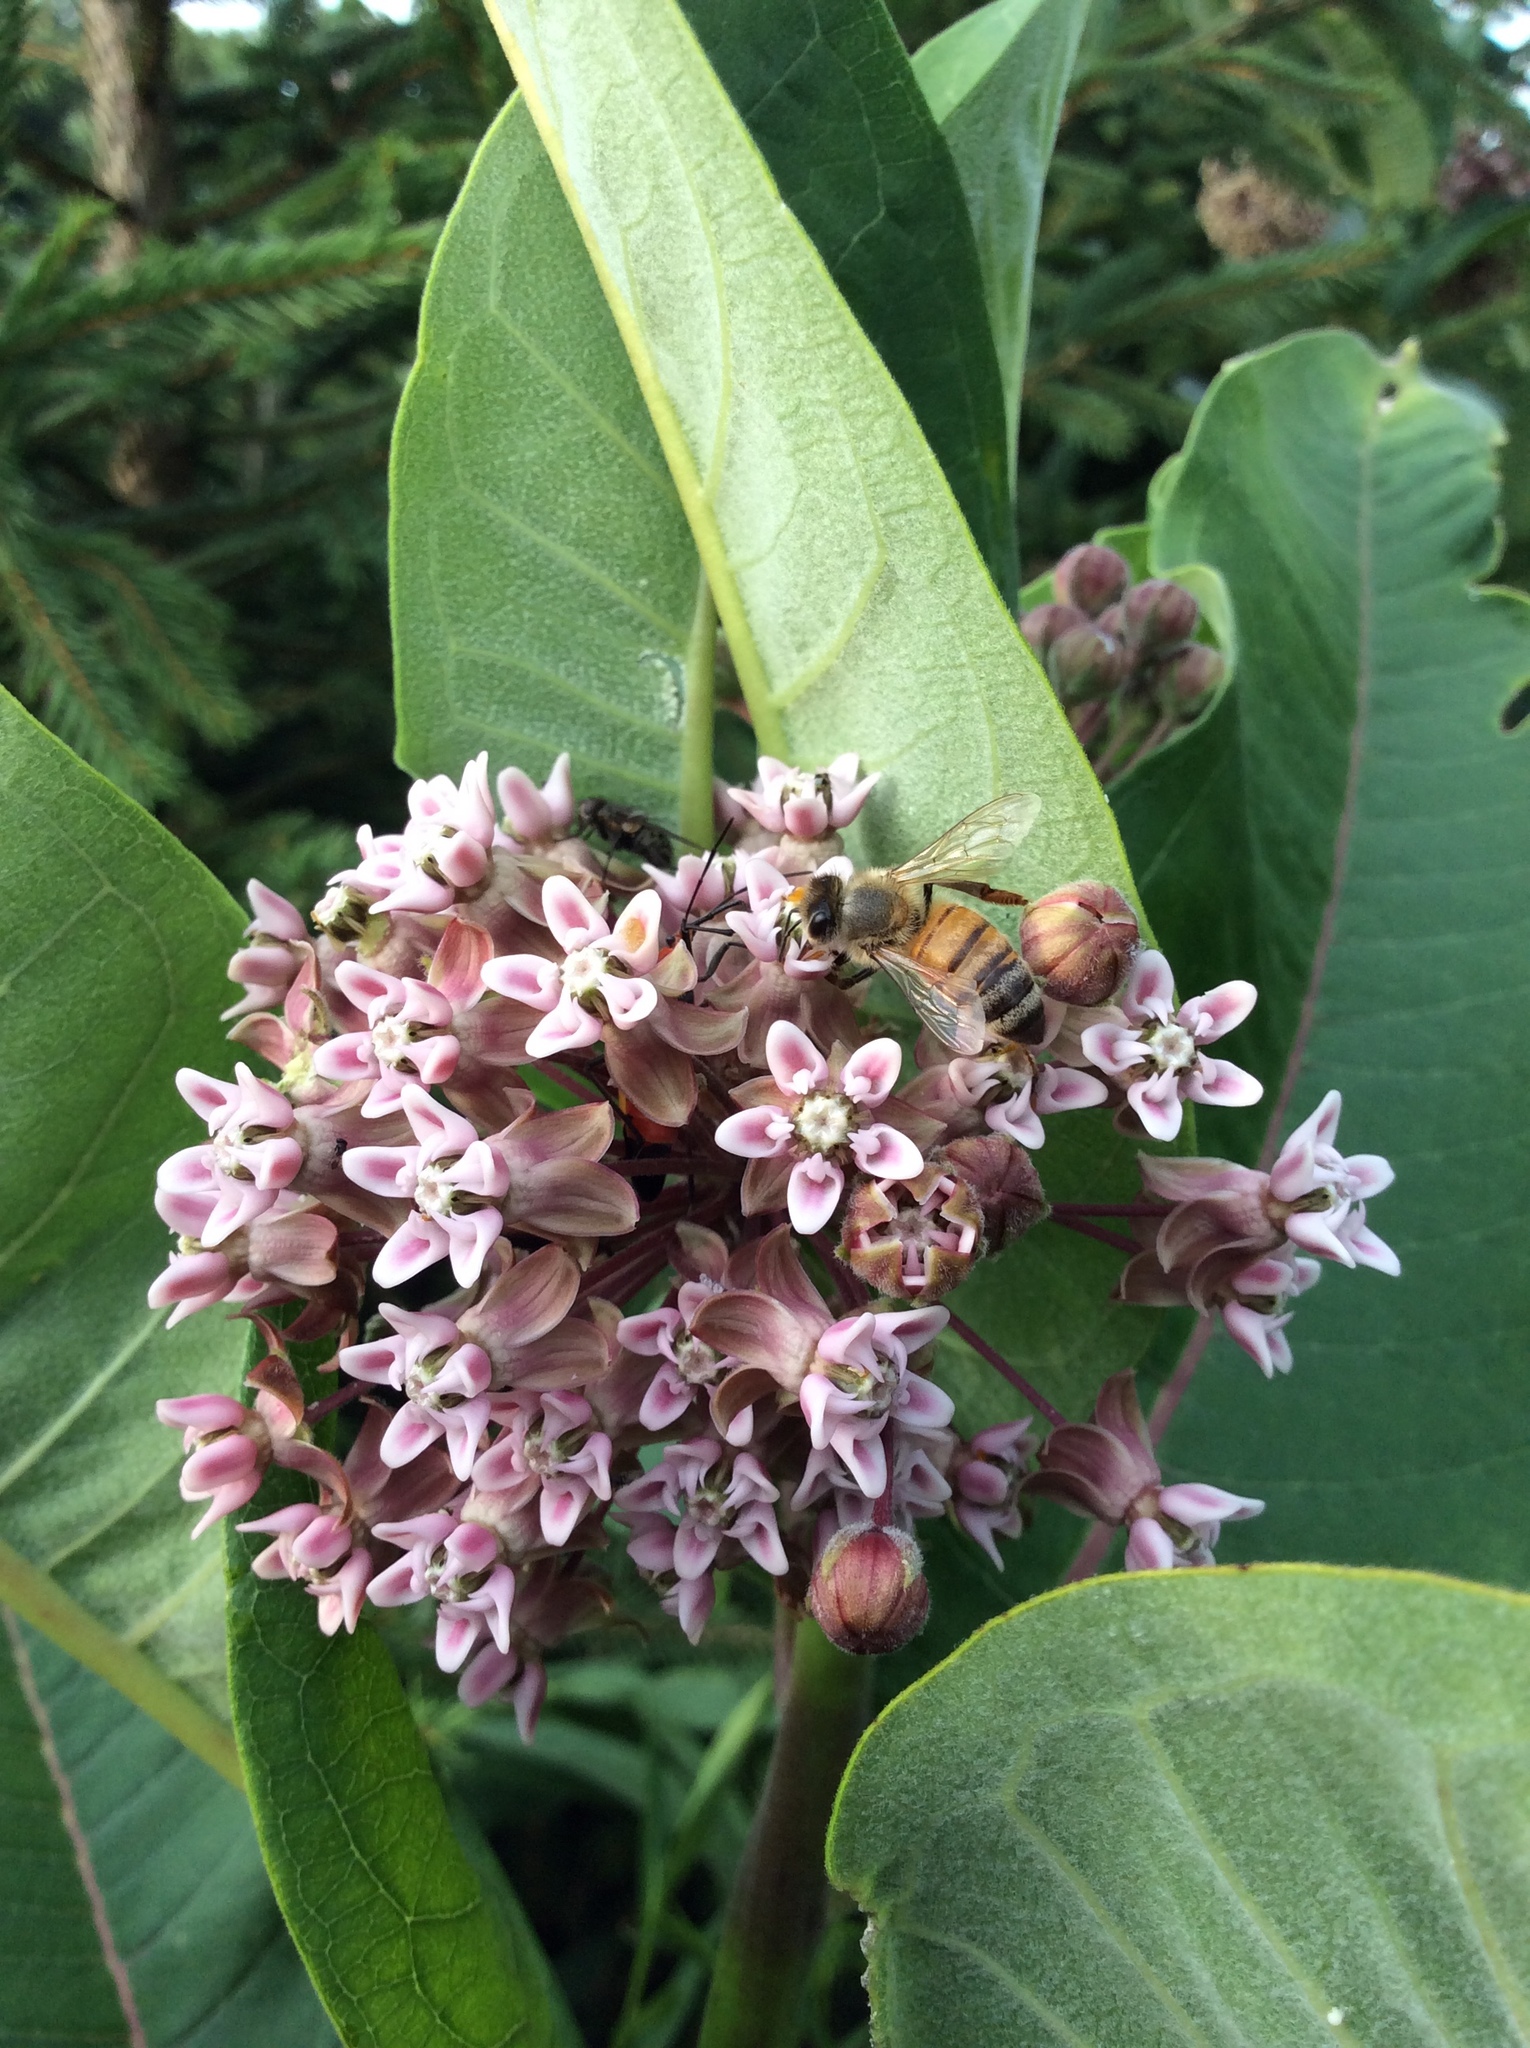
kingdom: Animalia
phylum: Arthropoda
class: Insecta
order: Hymenoptera
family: Apidae
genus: Apis
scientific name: Apis mellifera
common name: Honey bee
